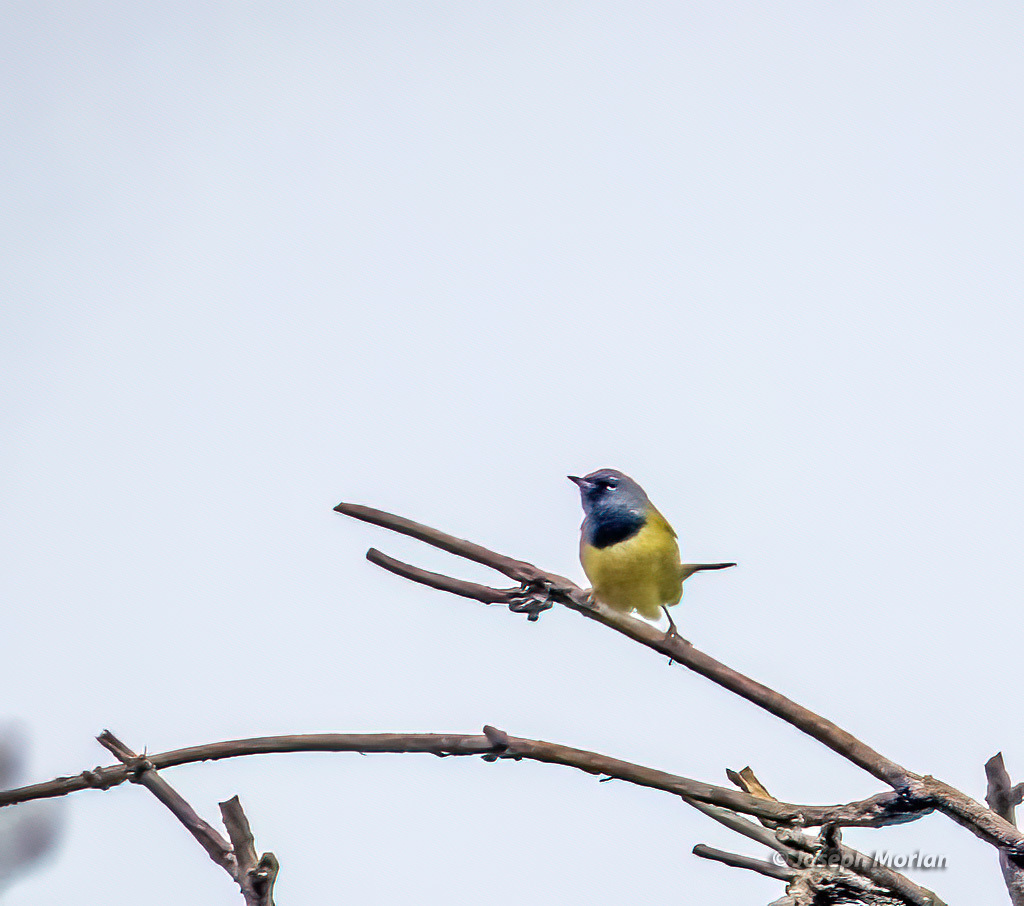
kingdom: Animalia
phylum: Chordata
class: Aves
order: Passeriformes
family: Parulidae
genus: Geothlypis
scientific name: Geothlypis tolmiei
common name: Macgillivray's warbler
